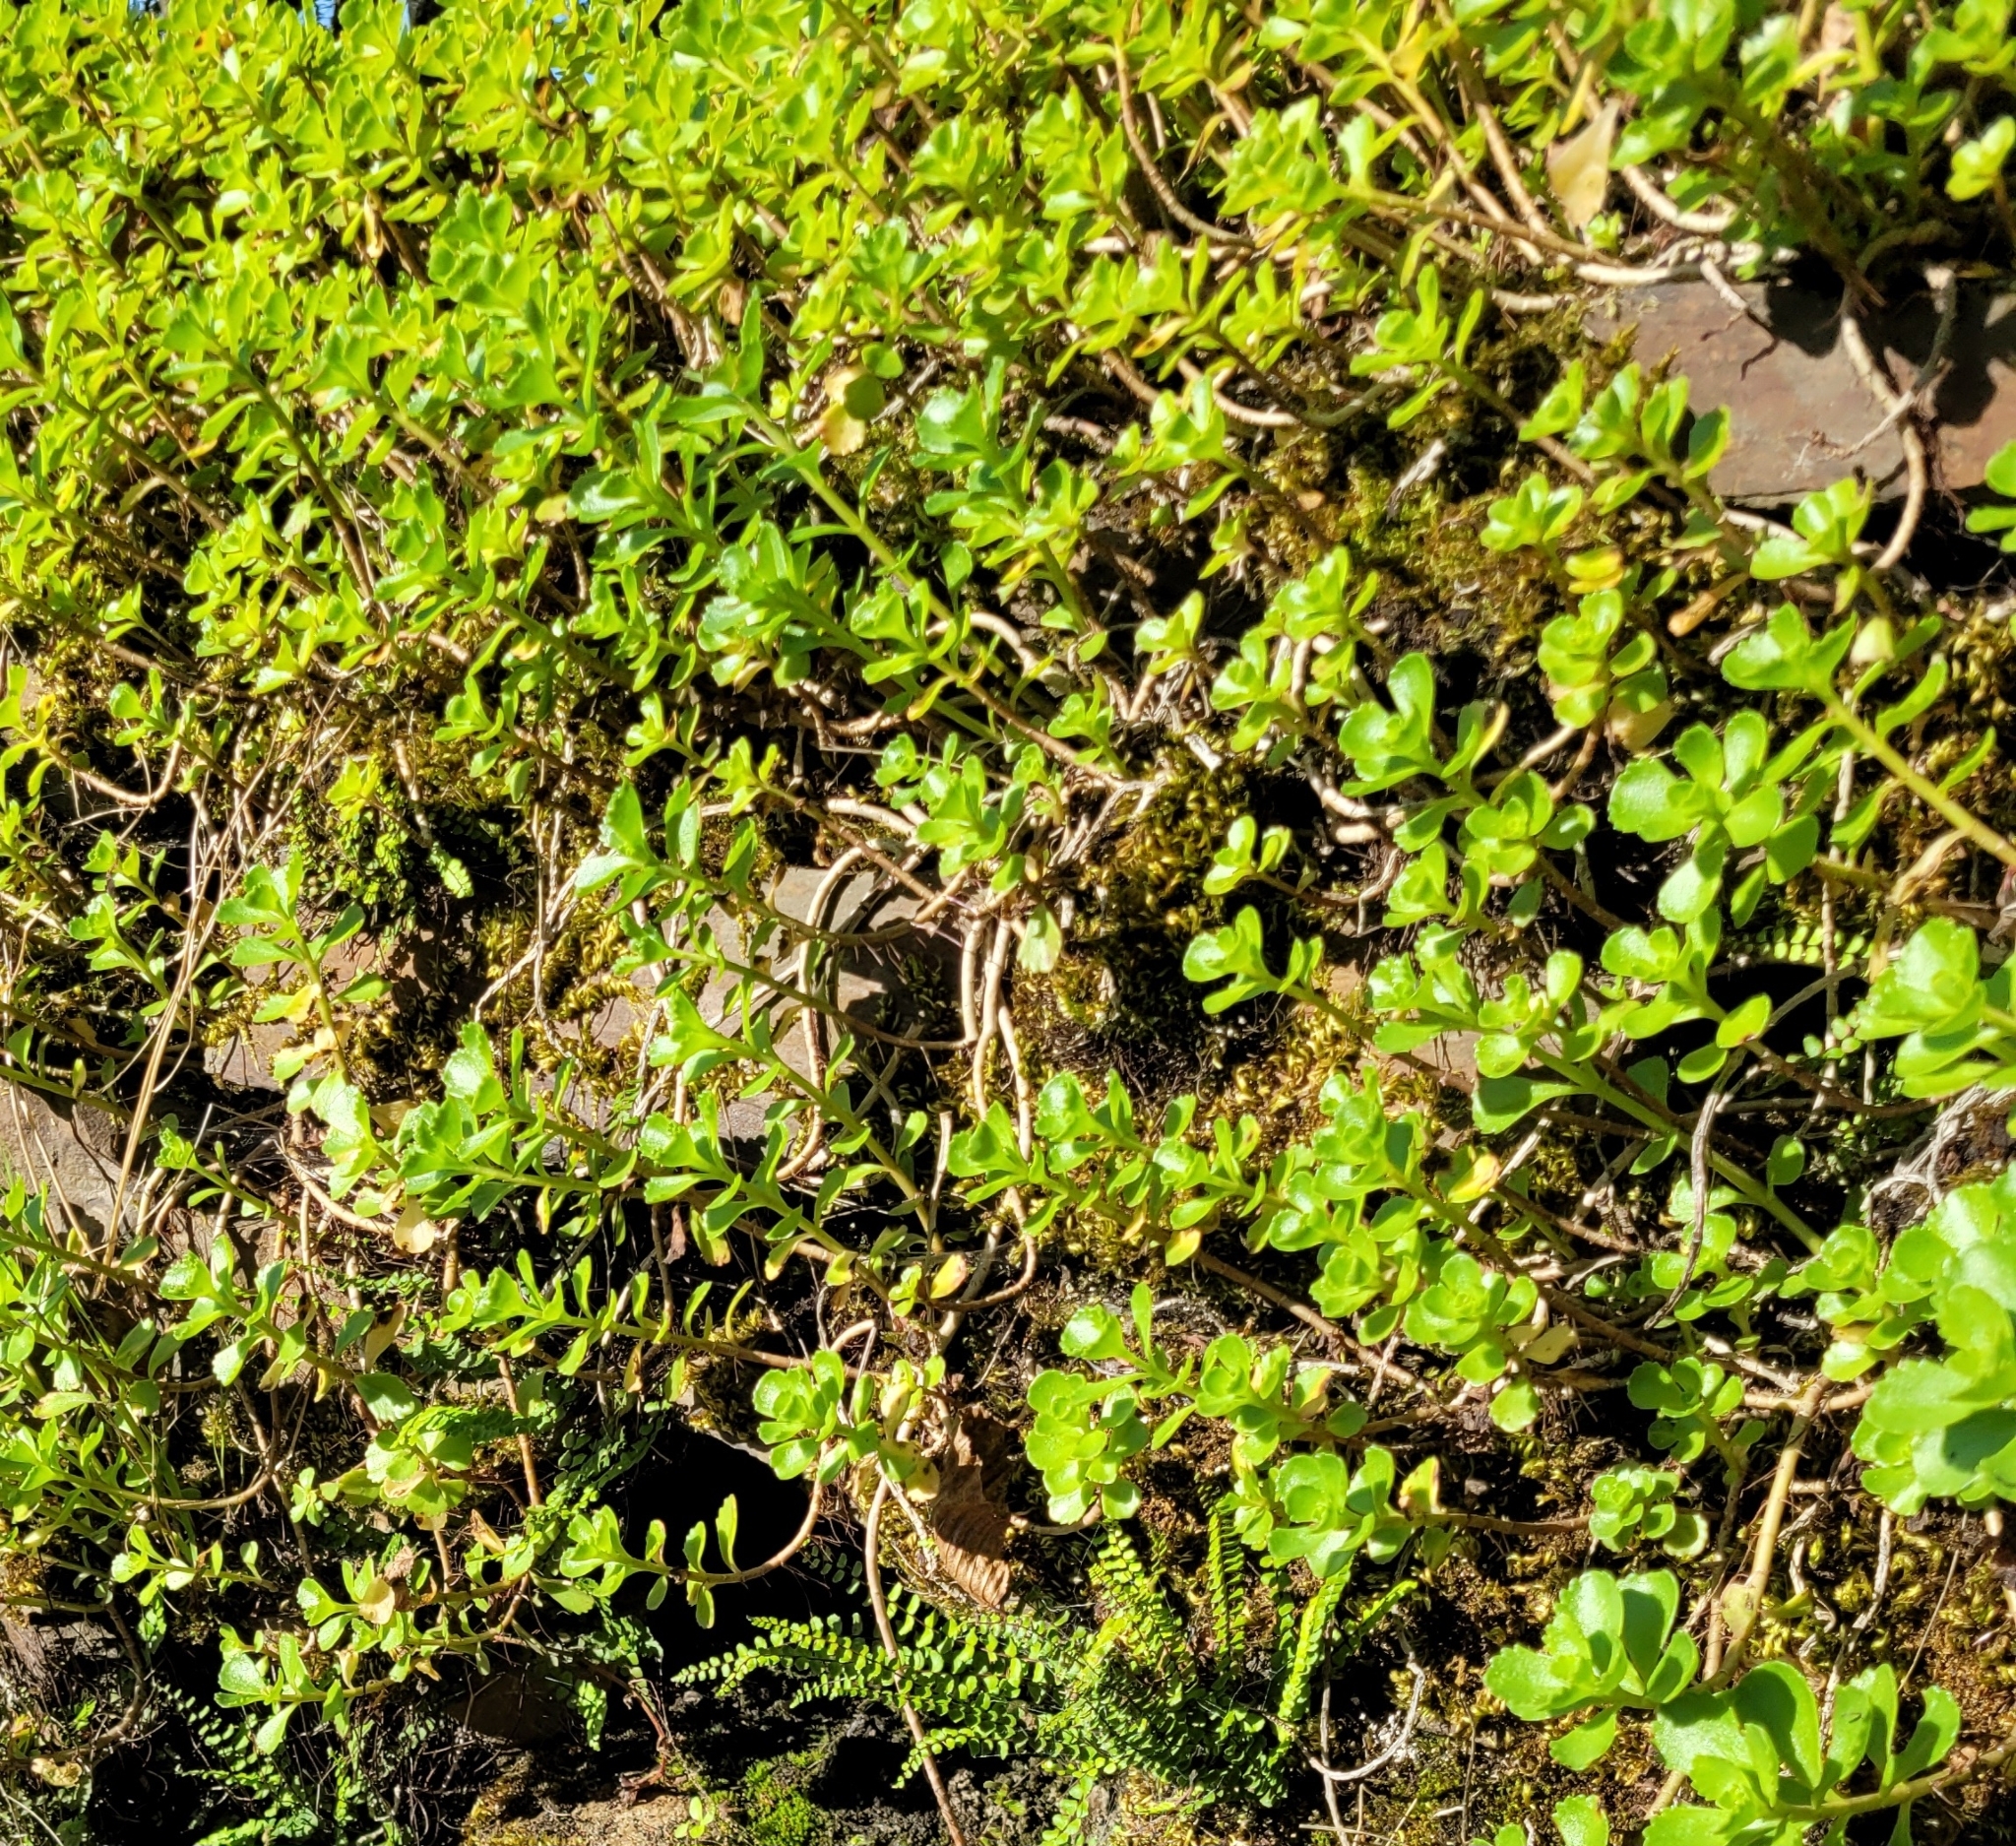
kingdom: Plantae
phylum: Tracheophyta
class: Magnoliopsida
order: Saxifragales
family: Crassulaceae
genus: Phedimus
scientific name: Phedimus spurius
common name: Caucasian stonecrop
